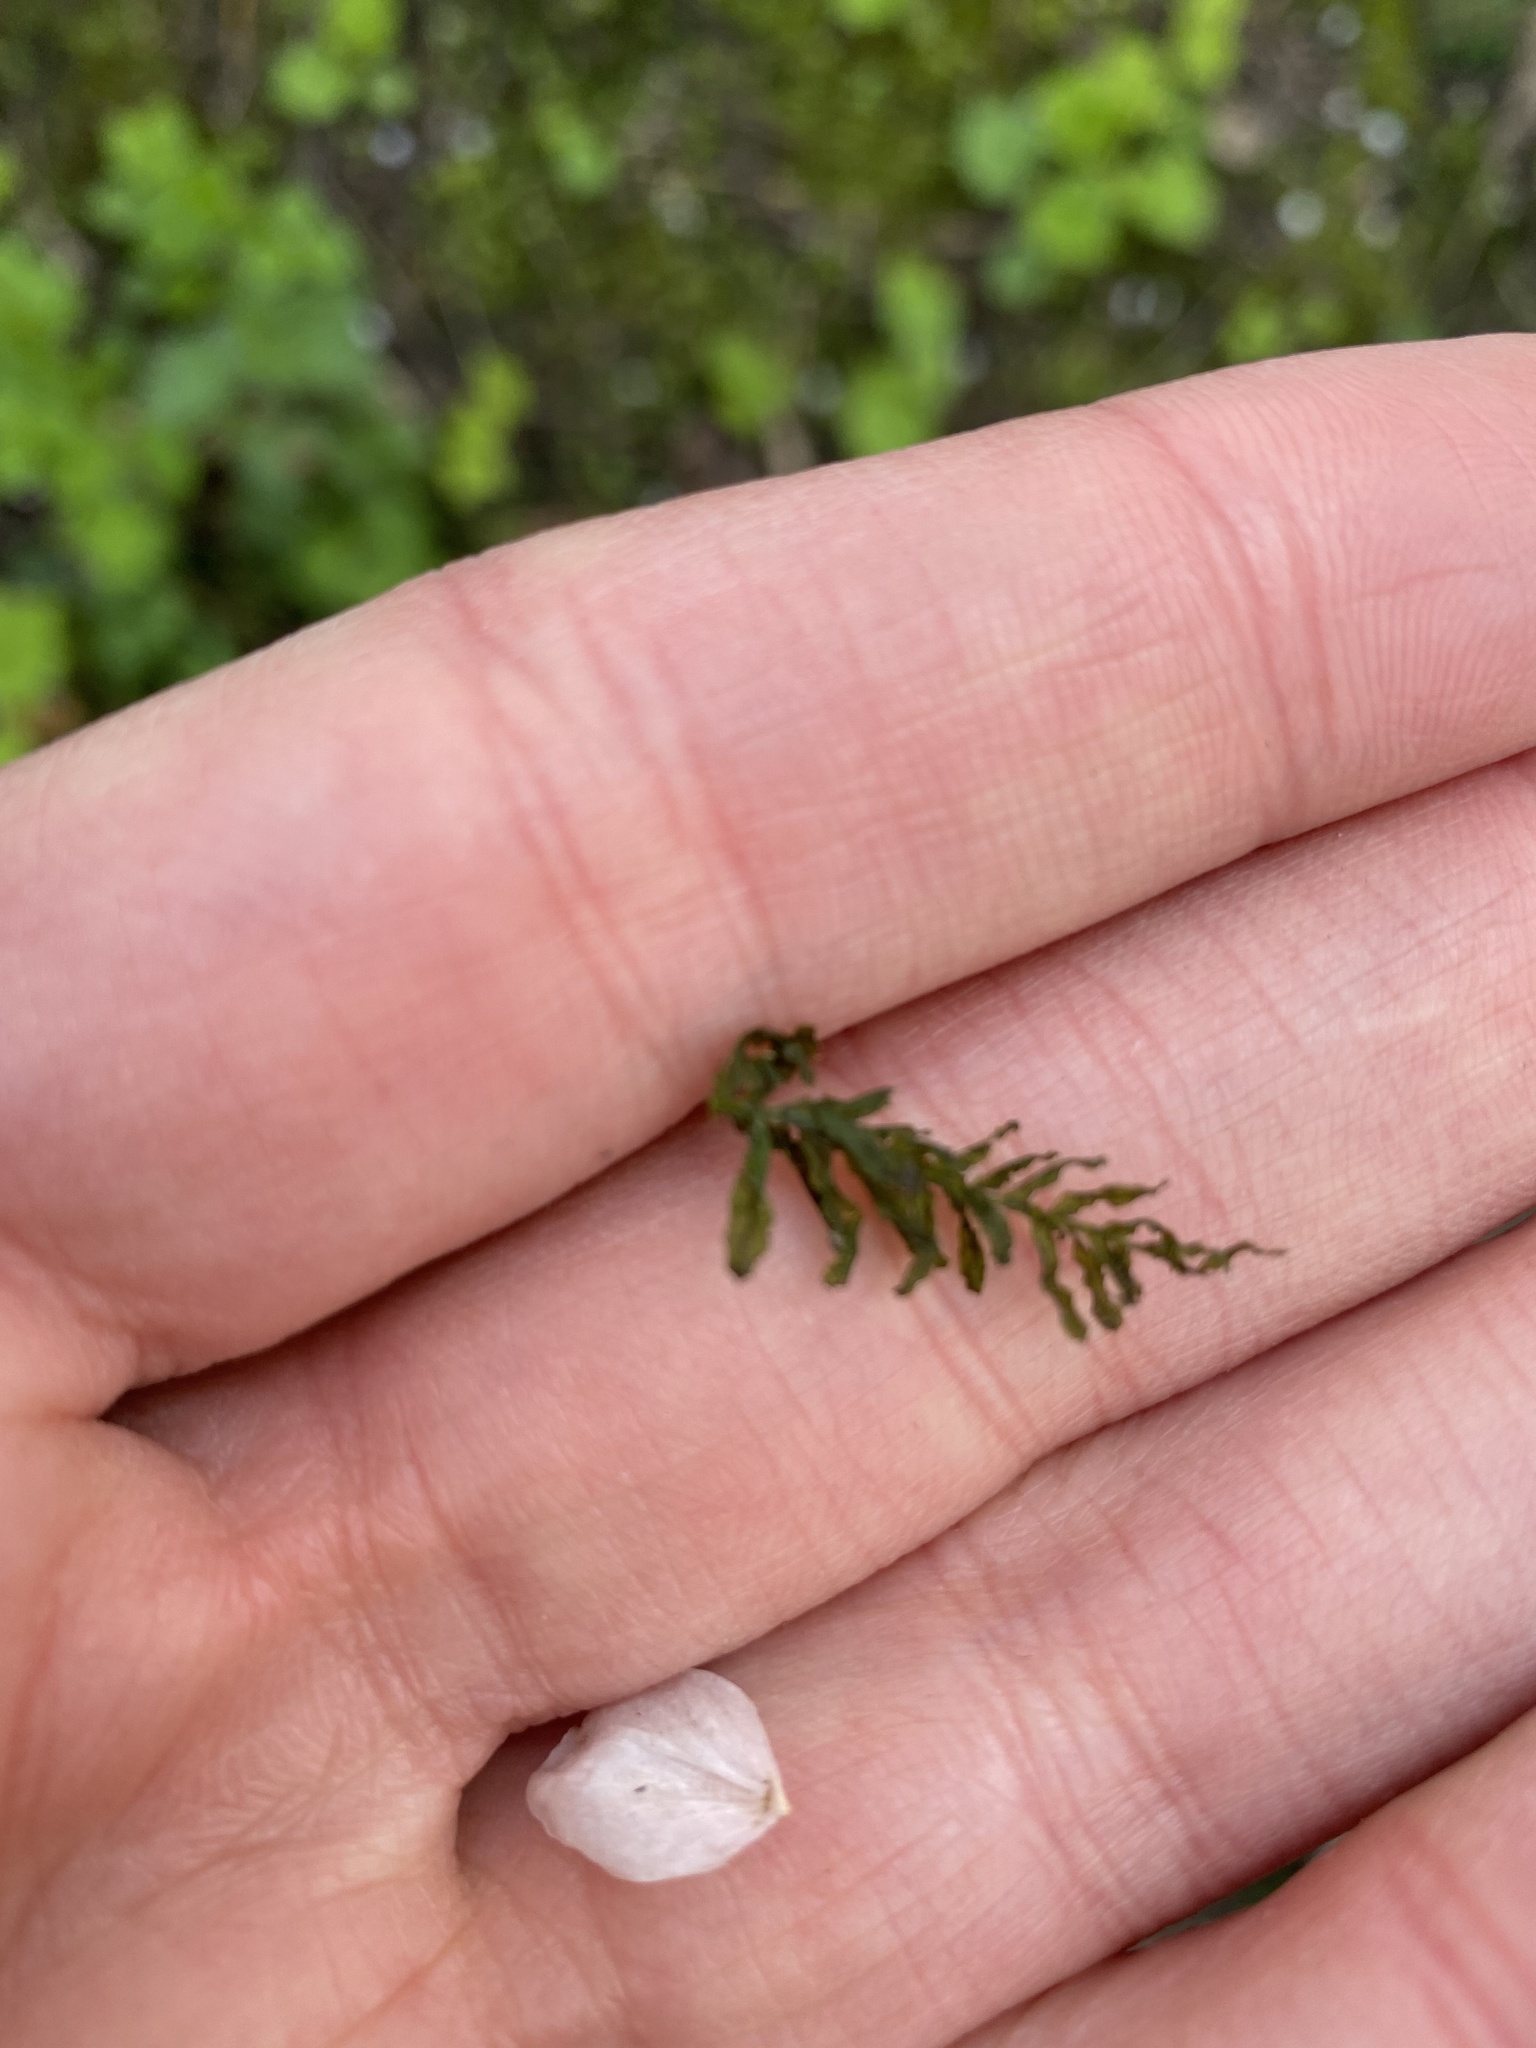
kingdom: Plantae
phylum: Bryophyta
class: Bryopsida
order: Bryales
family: Mniaceae
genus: Plagiomnium
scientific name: Plagiomnium undulatum
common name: Hart's-tongue thyme-moss
